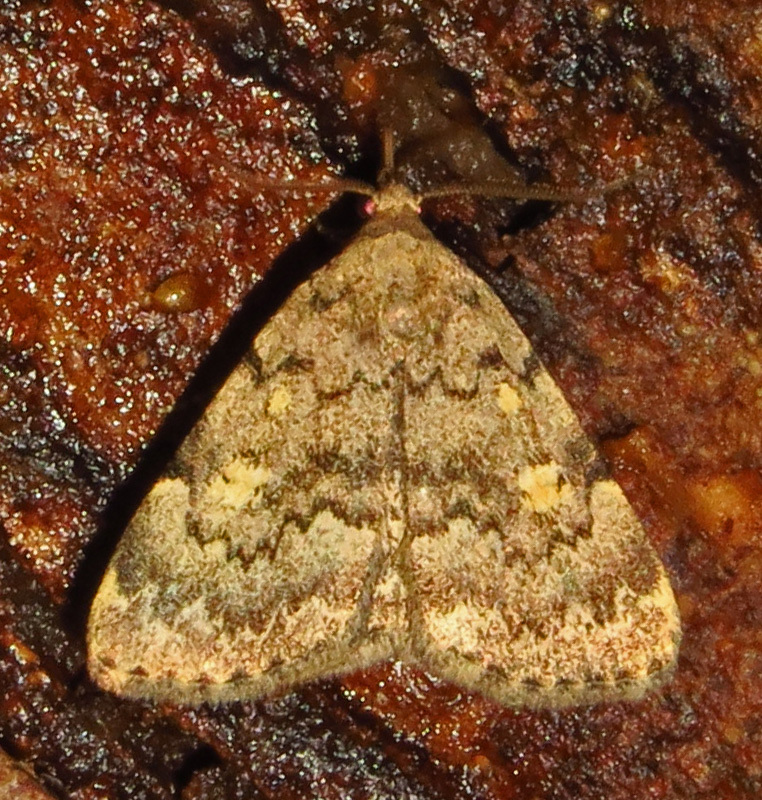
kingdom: Animalia
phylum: Arthropoda
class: Insecta
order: Lepidoptera
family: Erebidae
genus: Idia
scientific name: Idia aemula
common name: Common idia moth
